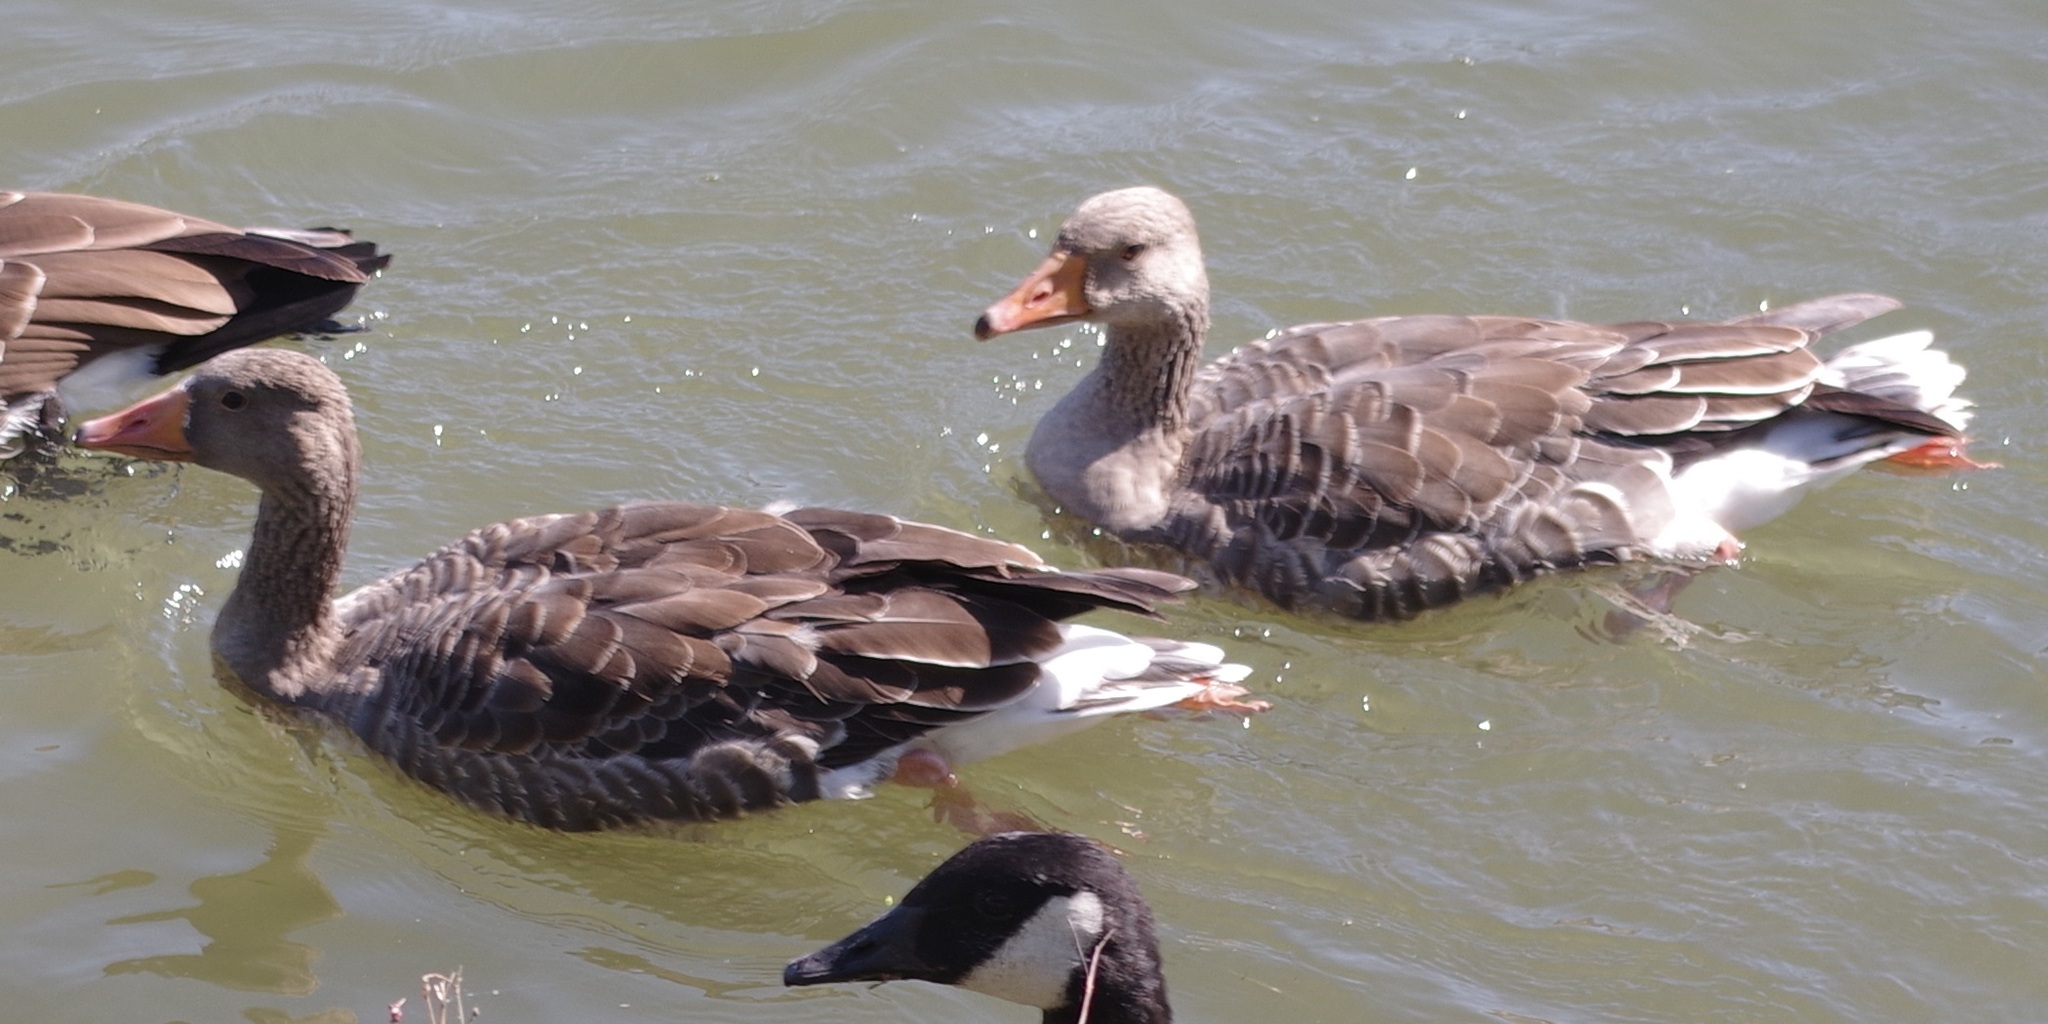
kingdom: Animalia
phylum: Chordata
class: Aves
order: Anseriformes
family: Anatidae
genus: Anser
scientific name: Anser anser
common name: Greylag goose
